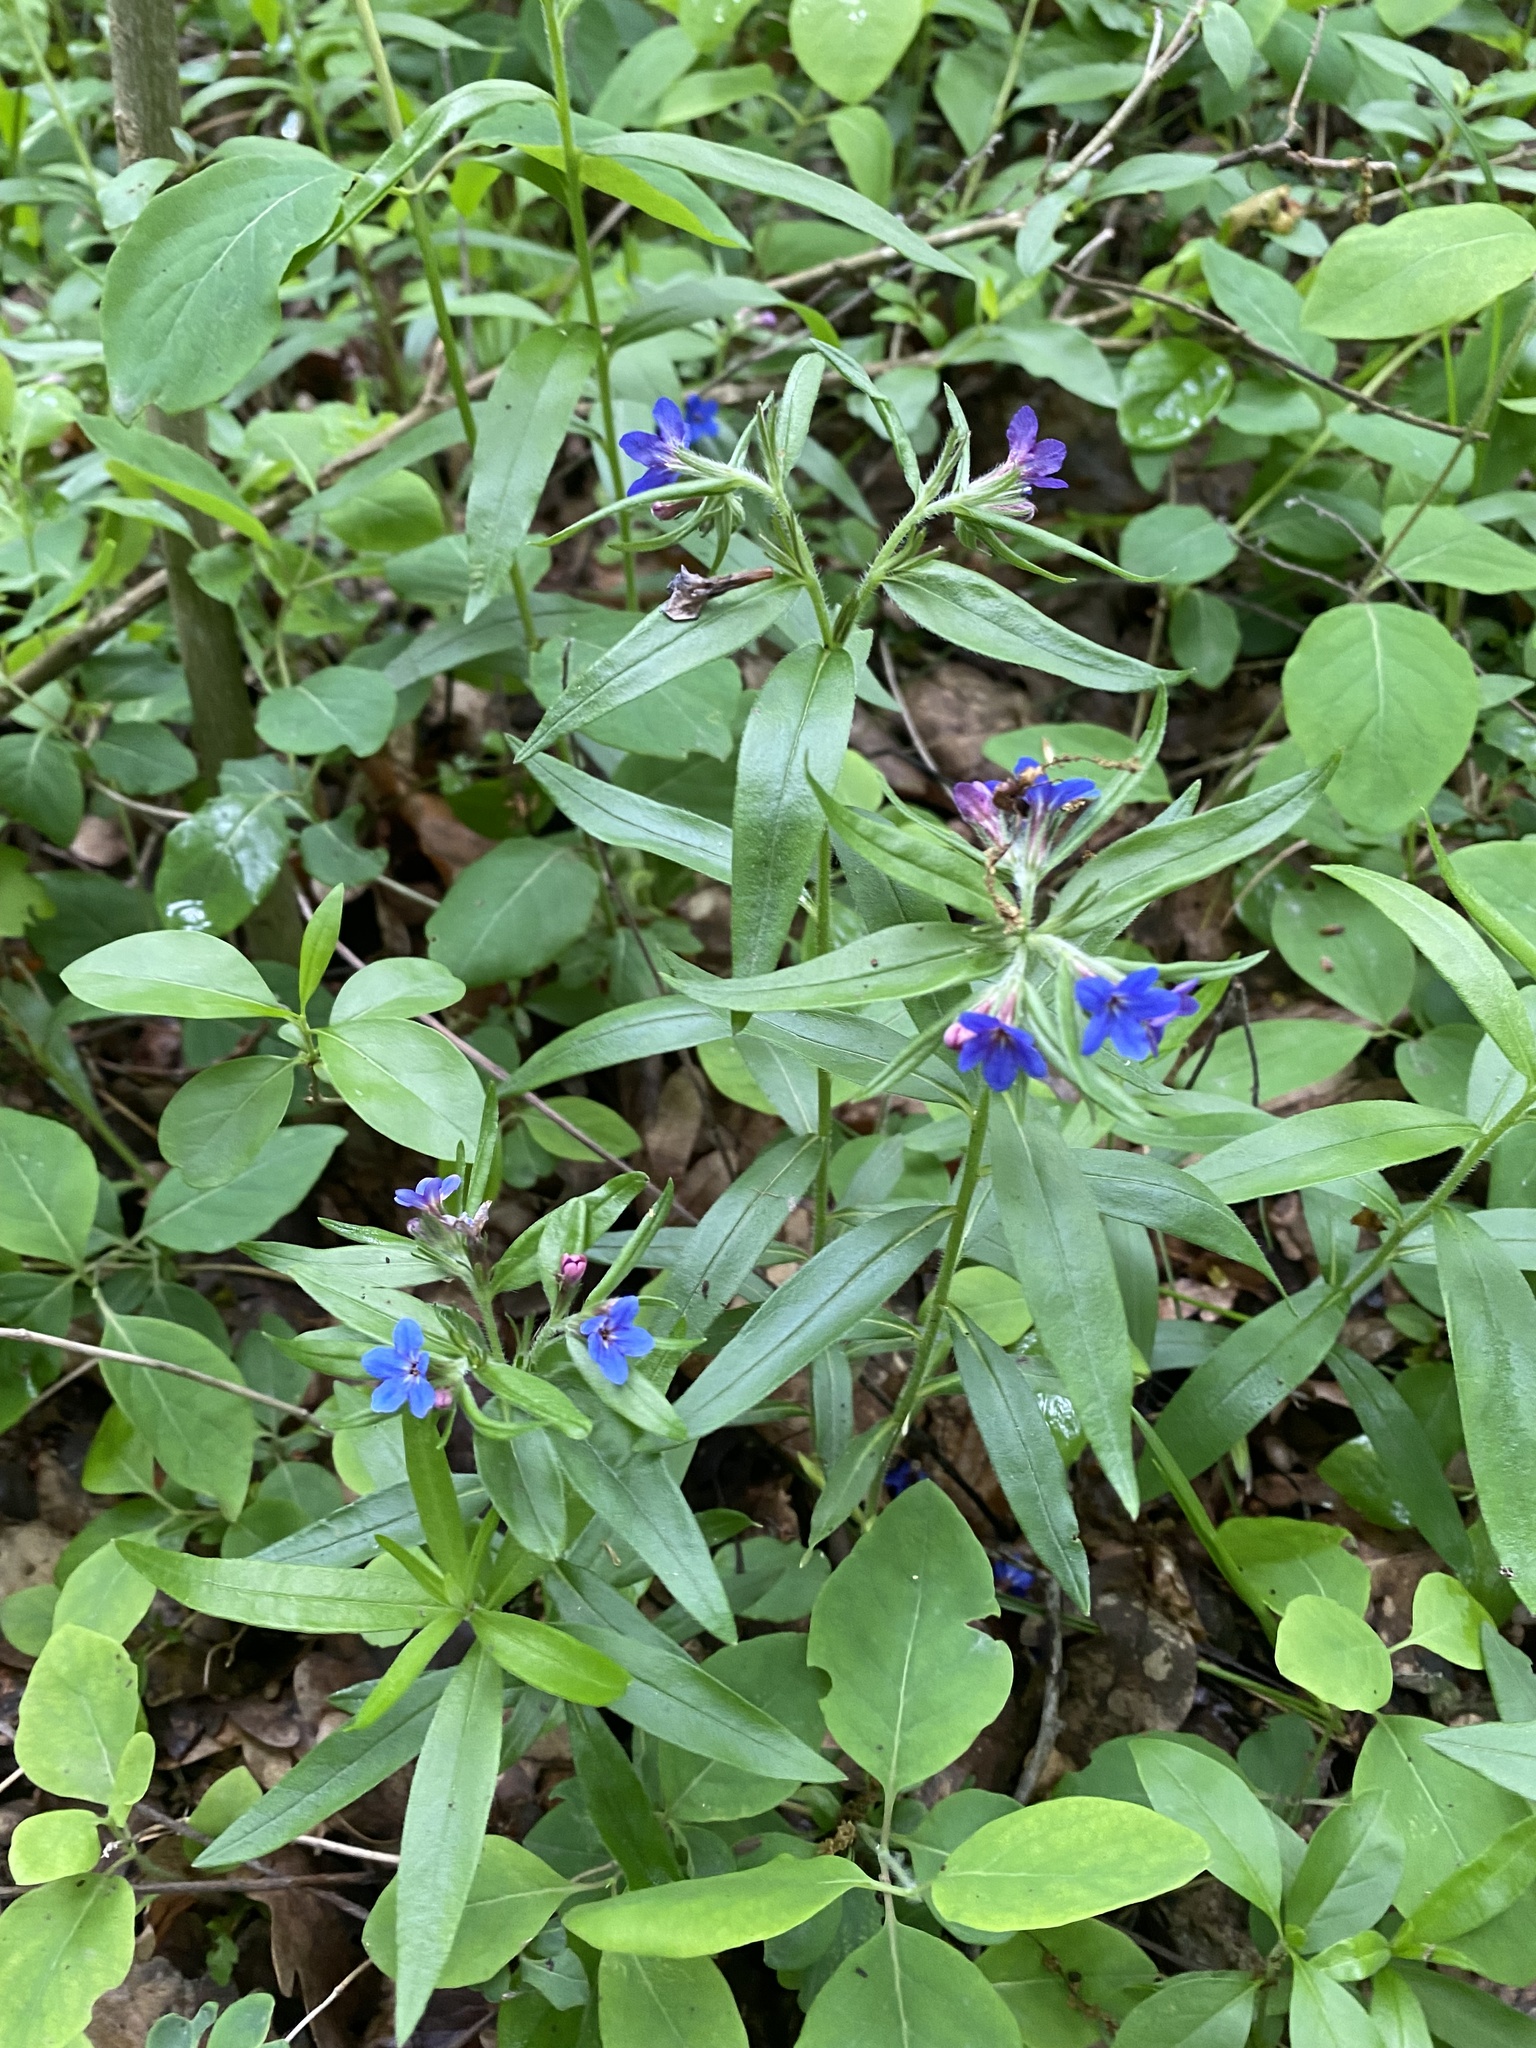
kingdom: Plantae
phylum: Tracheophyta
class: Magnoliopsida
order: Boraginales
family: Boraginaceae
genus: Aegonychon
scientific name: Aegonychon purpurocaeruleum
